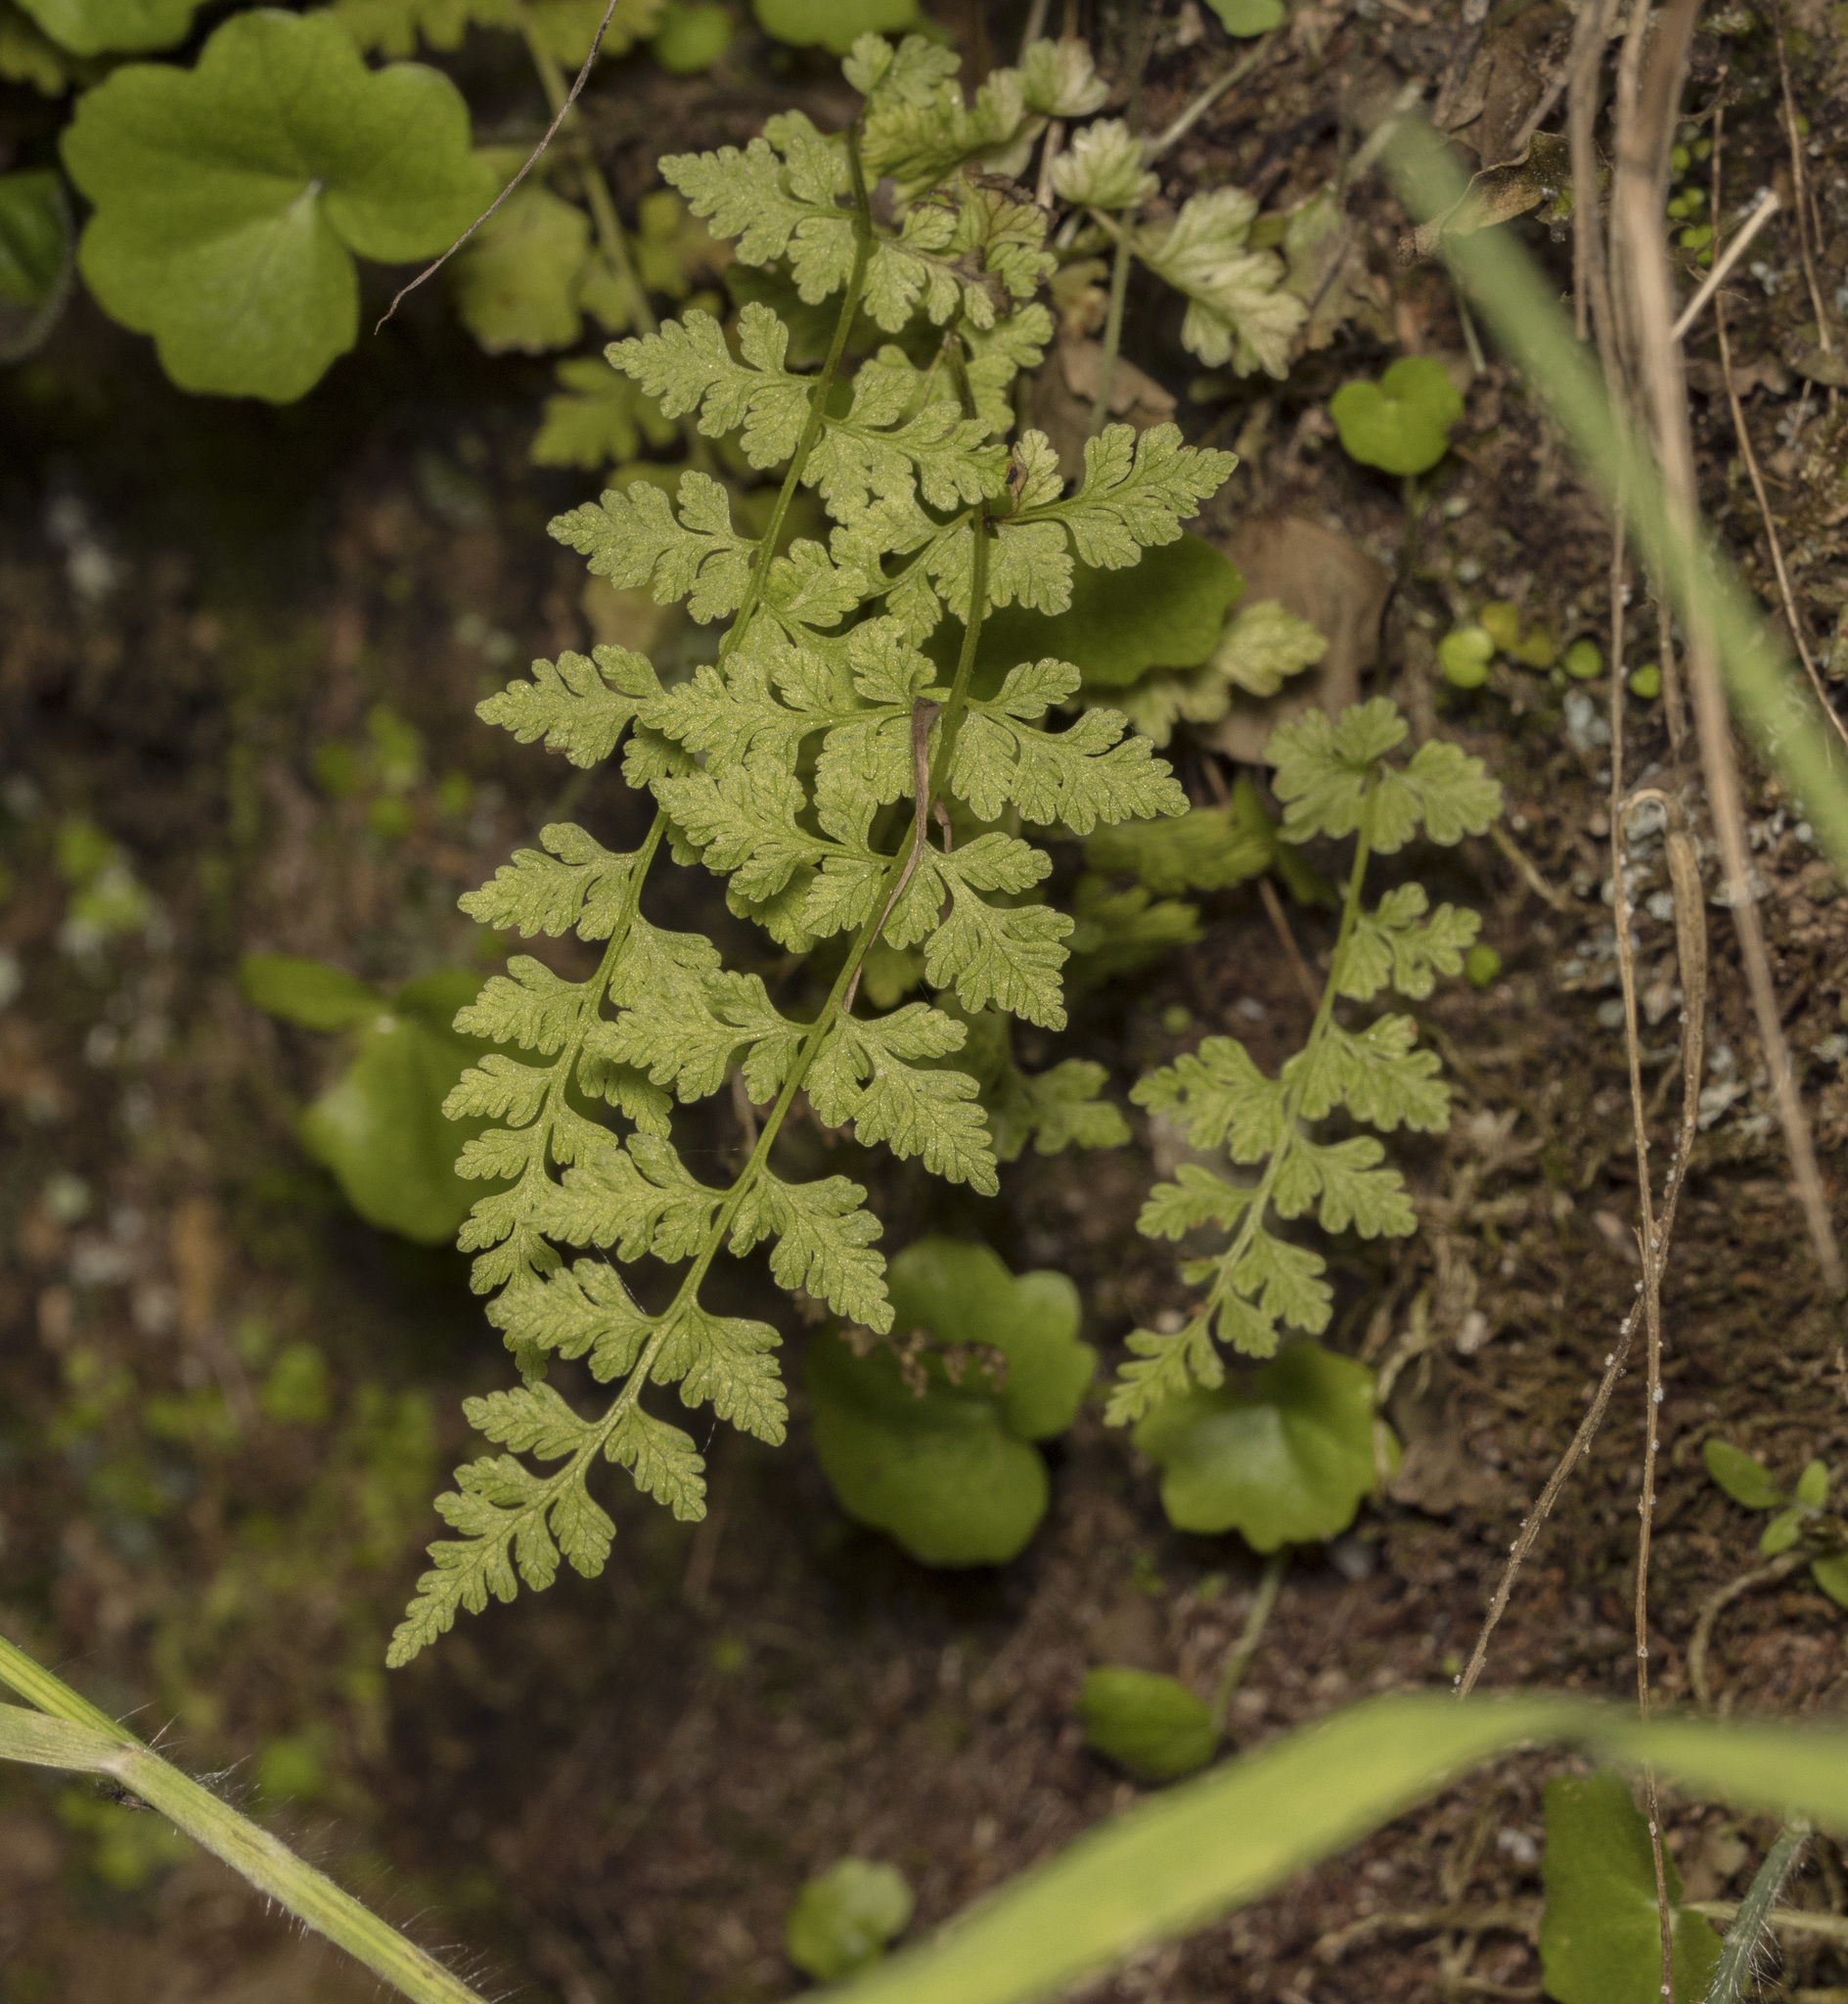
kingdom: Plantae
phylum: Tracheophyta
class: Polypodiopsida
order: Polypodiales
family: Cystopteridaceae
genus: Cystopteris
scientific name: Cystopteris
